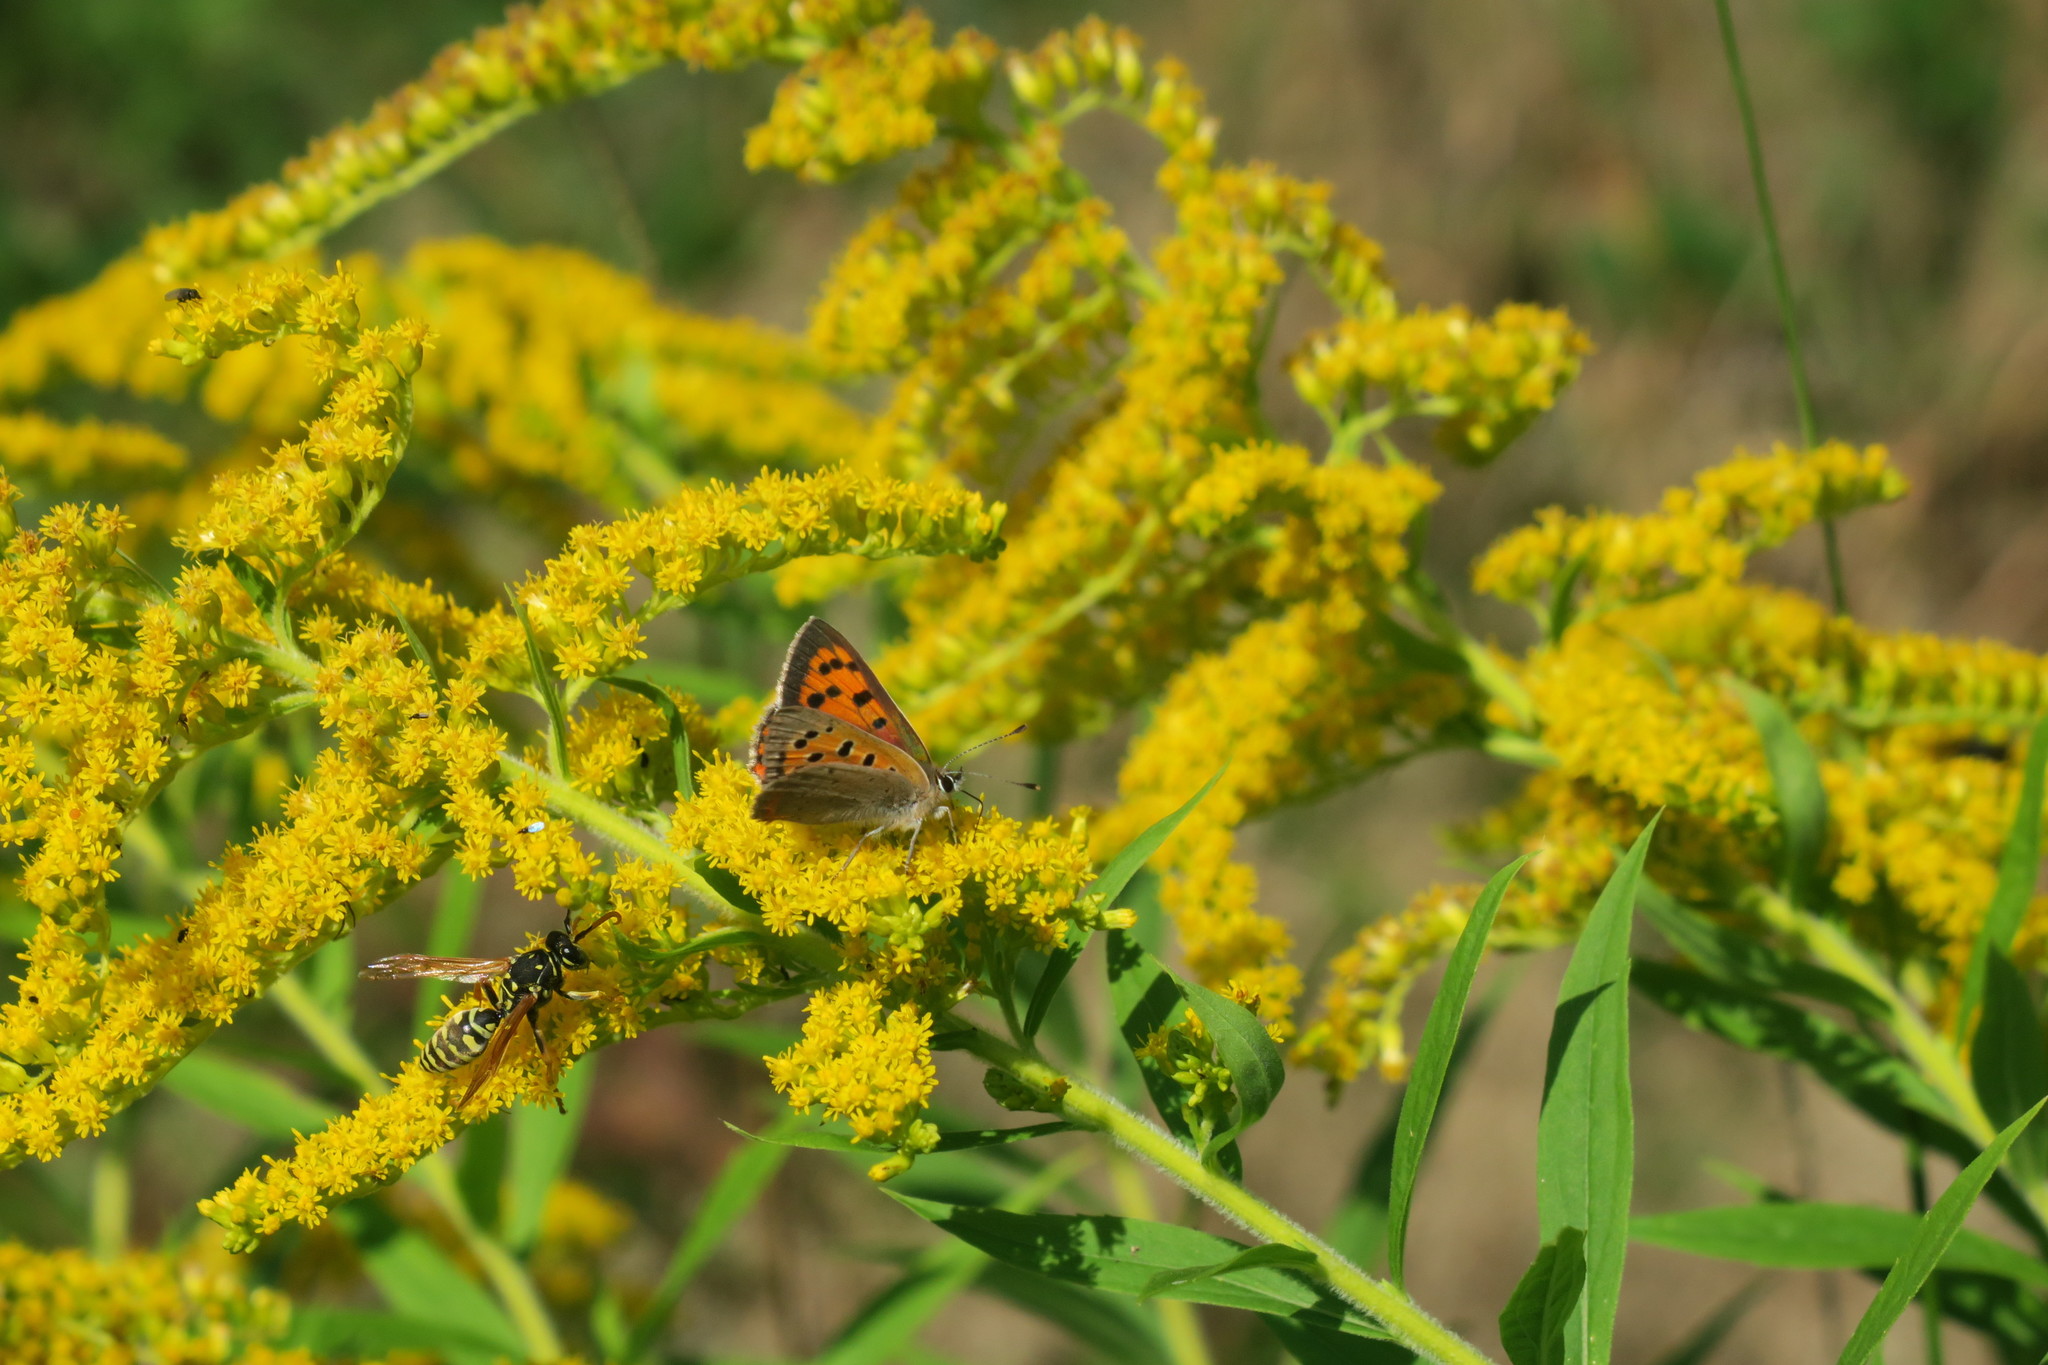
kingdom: Animalia
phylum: Arthropoda
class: Insecta
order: Lepidoptera
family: Lycaenidae
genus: Lycaena
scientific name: Lycaena phlaeas
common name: Small copper
